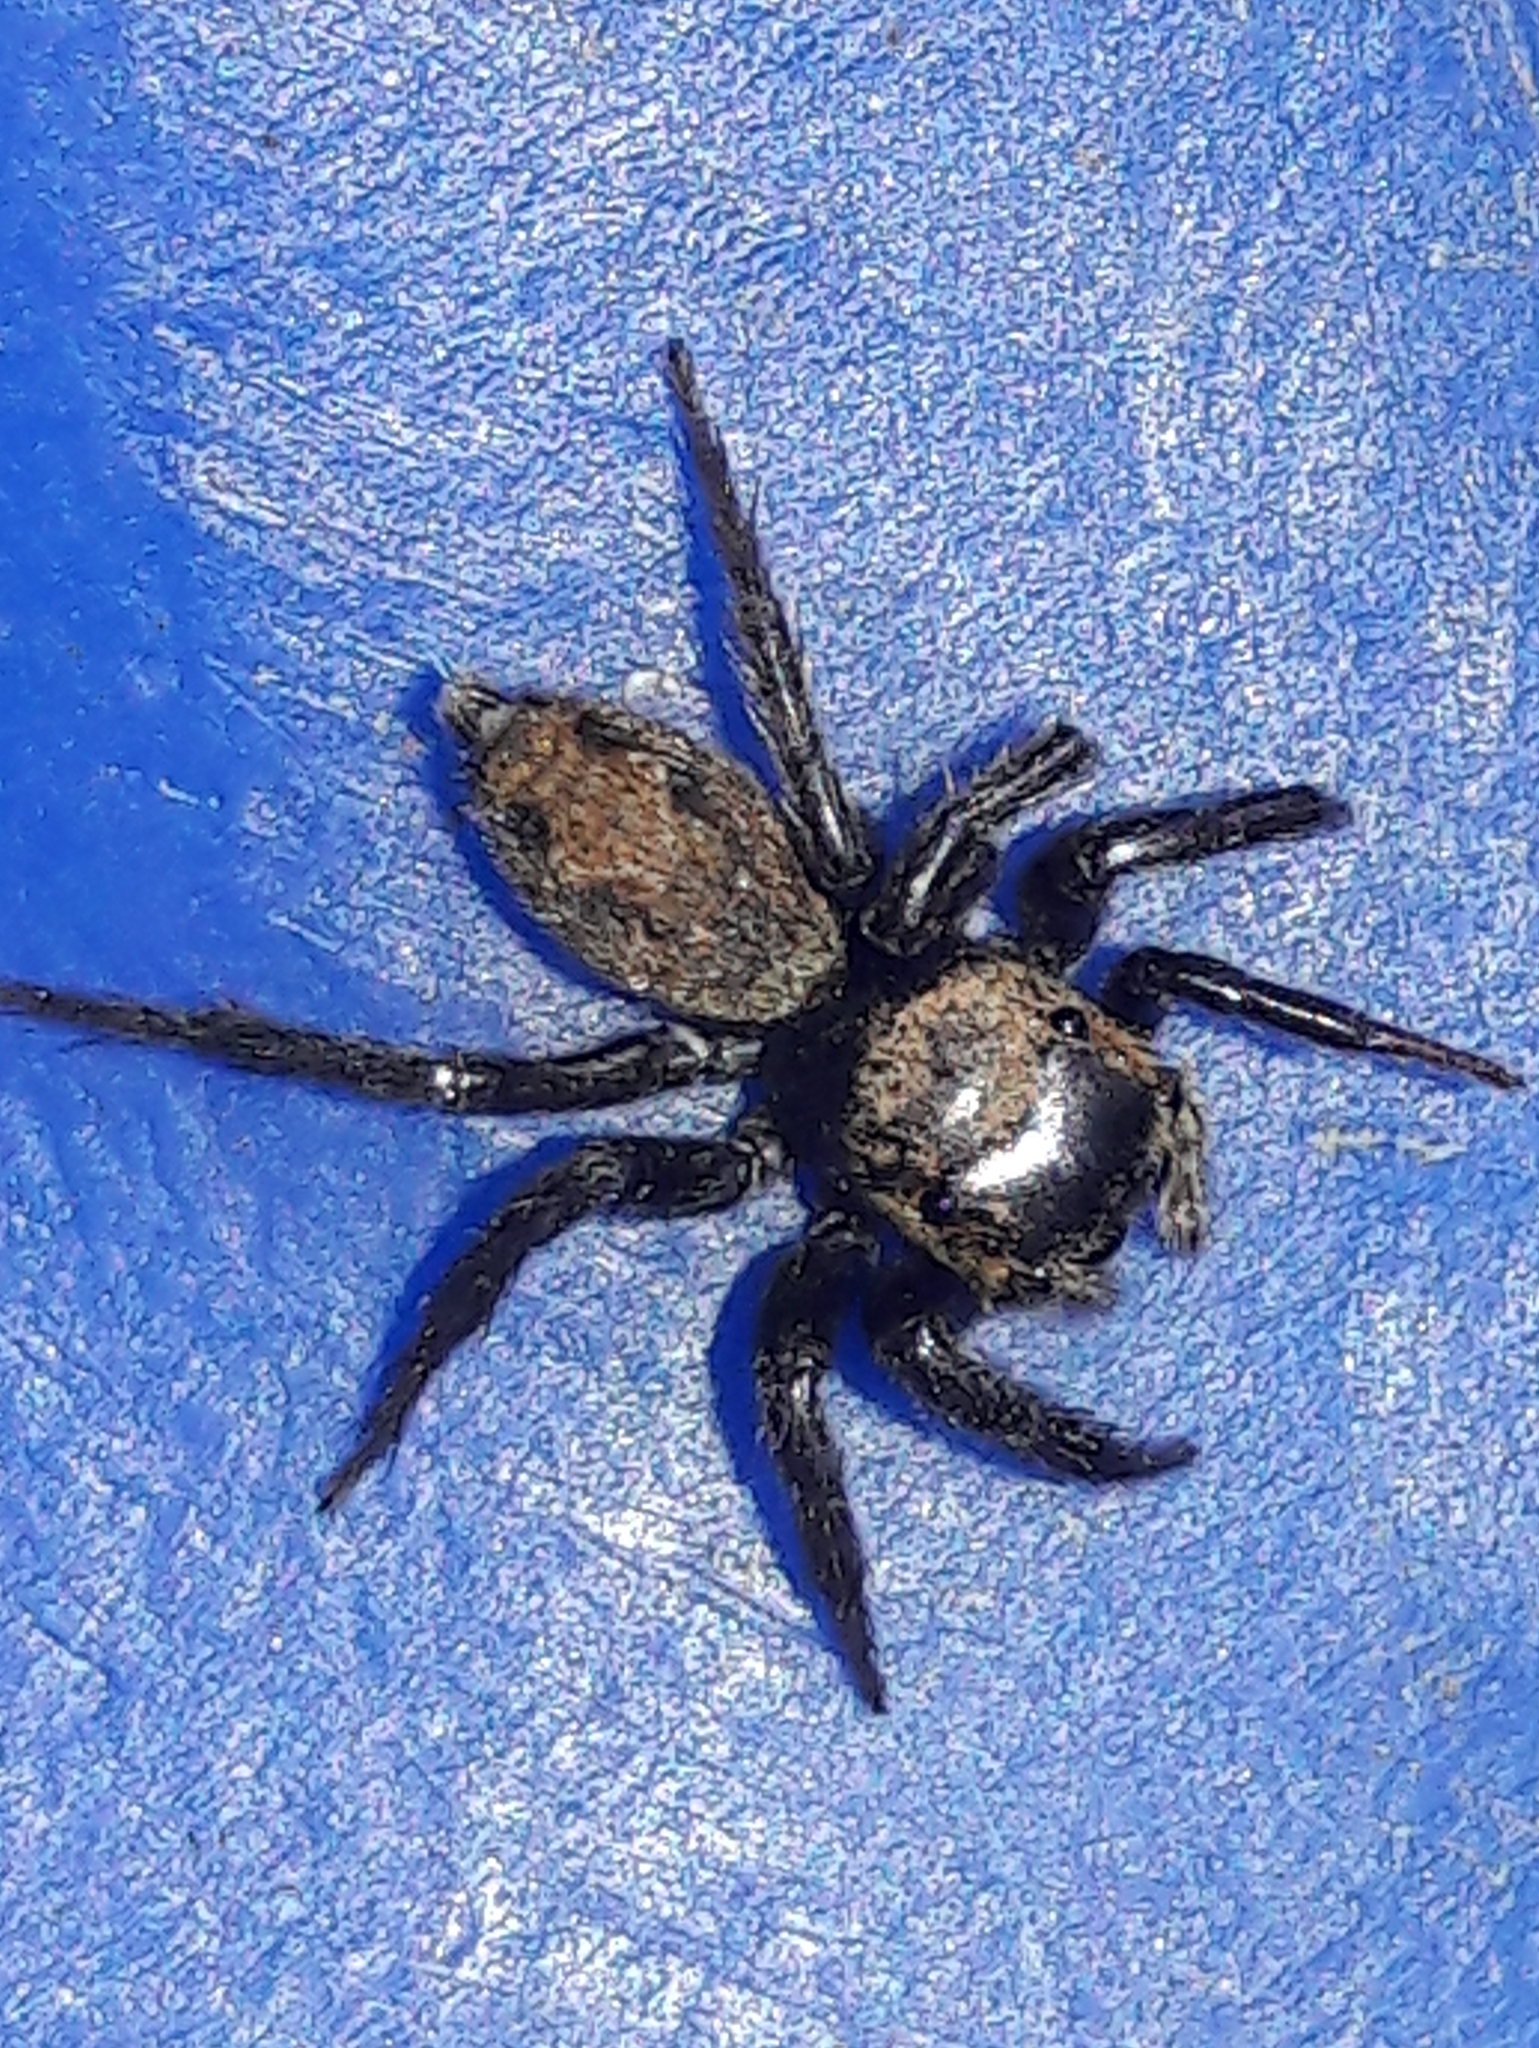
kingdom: Animalia
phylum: Arthropoda
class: Arachnida
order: Araneae
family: Salticidae
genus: Hasarius
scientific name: Hasarius adansoni
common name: Jumping spider
